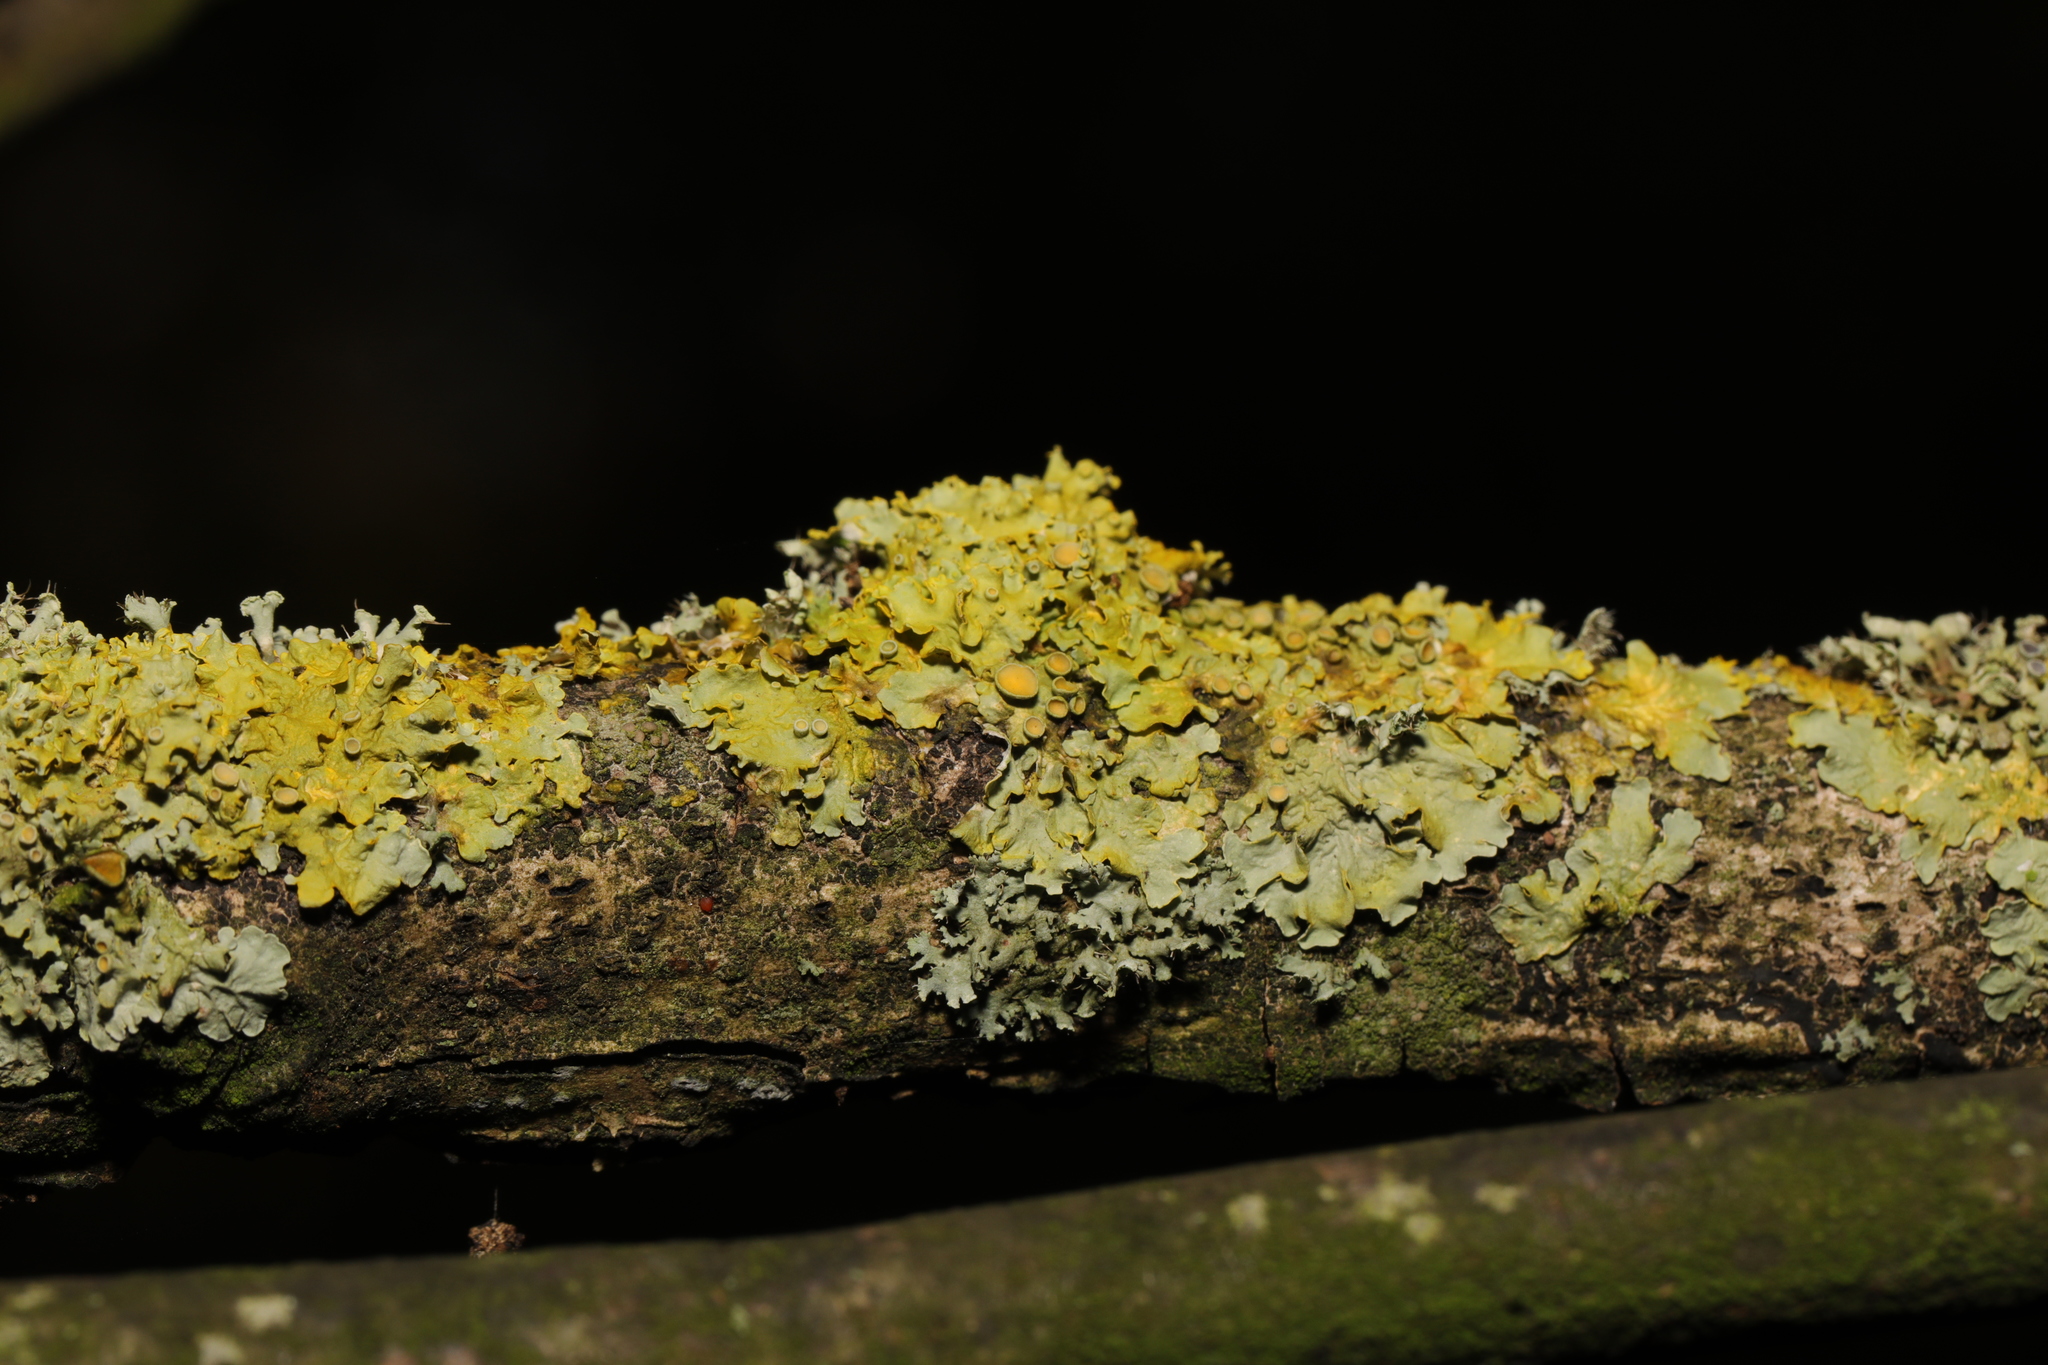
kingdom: Fungi
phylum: Ascomycota
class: Lecanoromycetes
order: Teloschistales
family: Teloschistaceae
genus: Xanthoria
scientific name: Xanthoria parietina
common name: Common orange lichen
